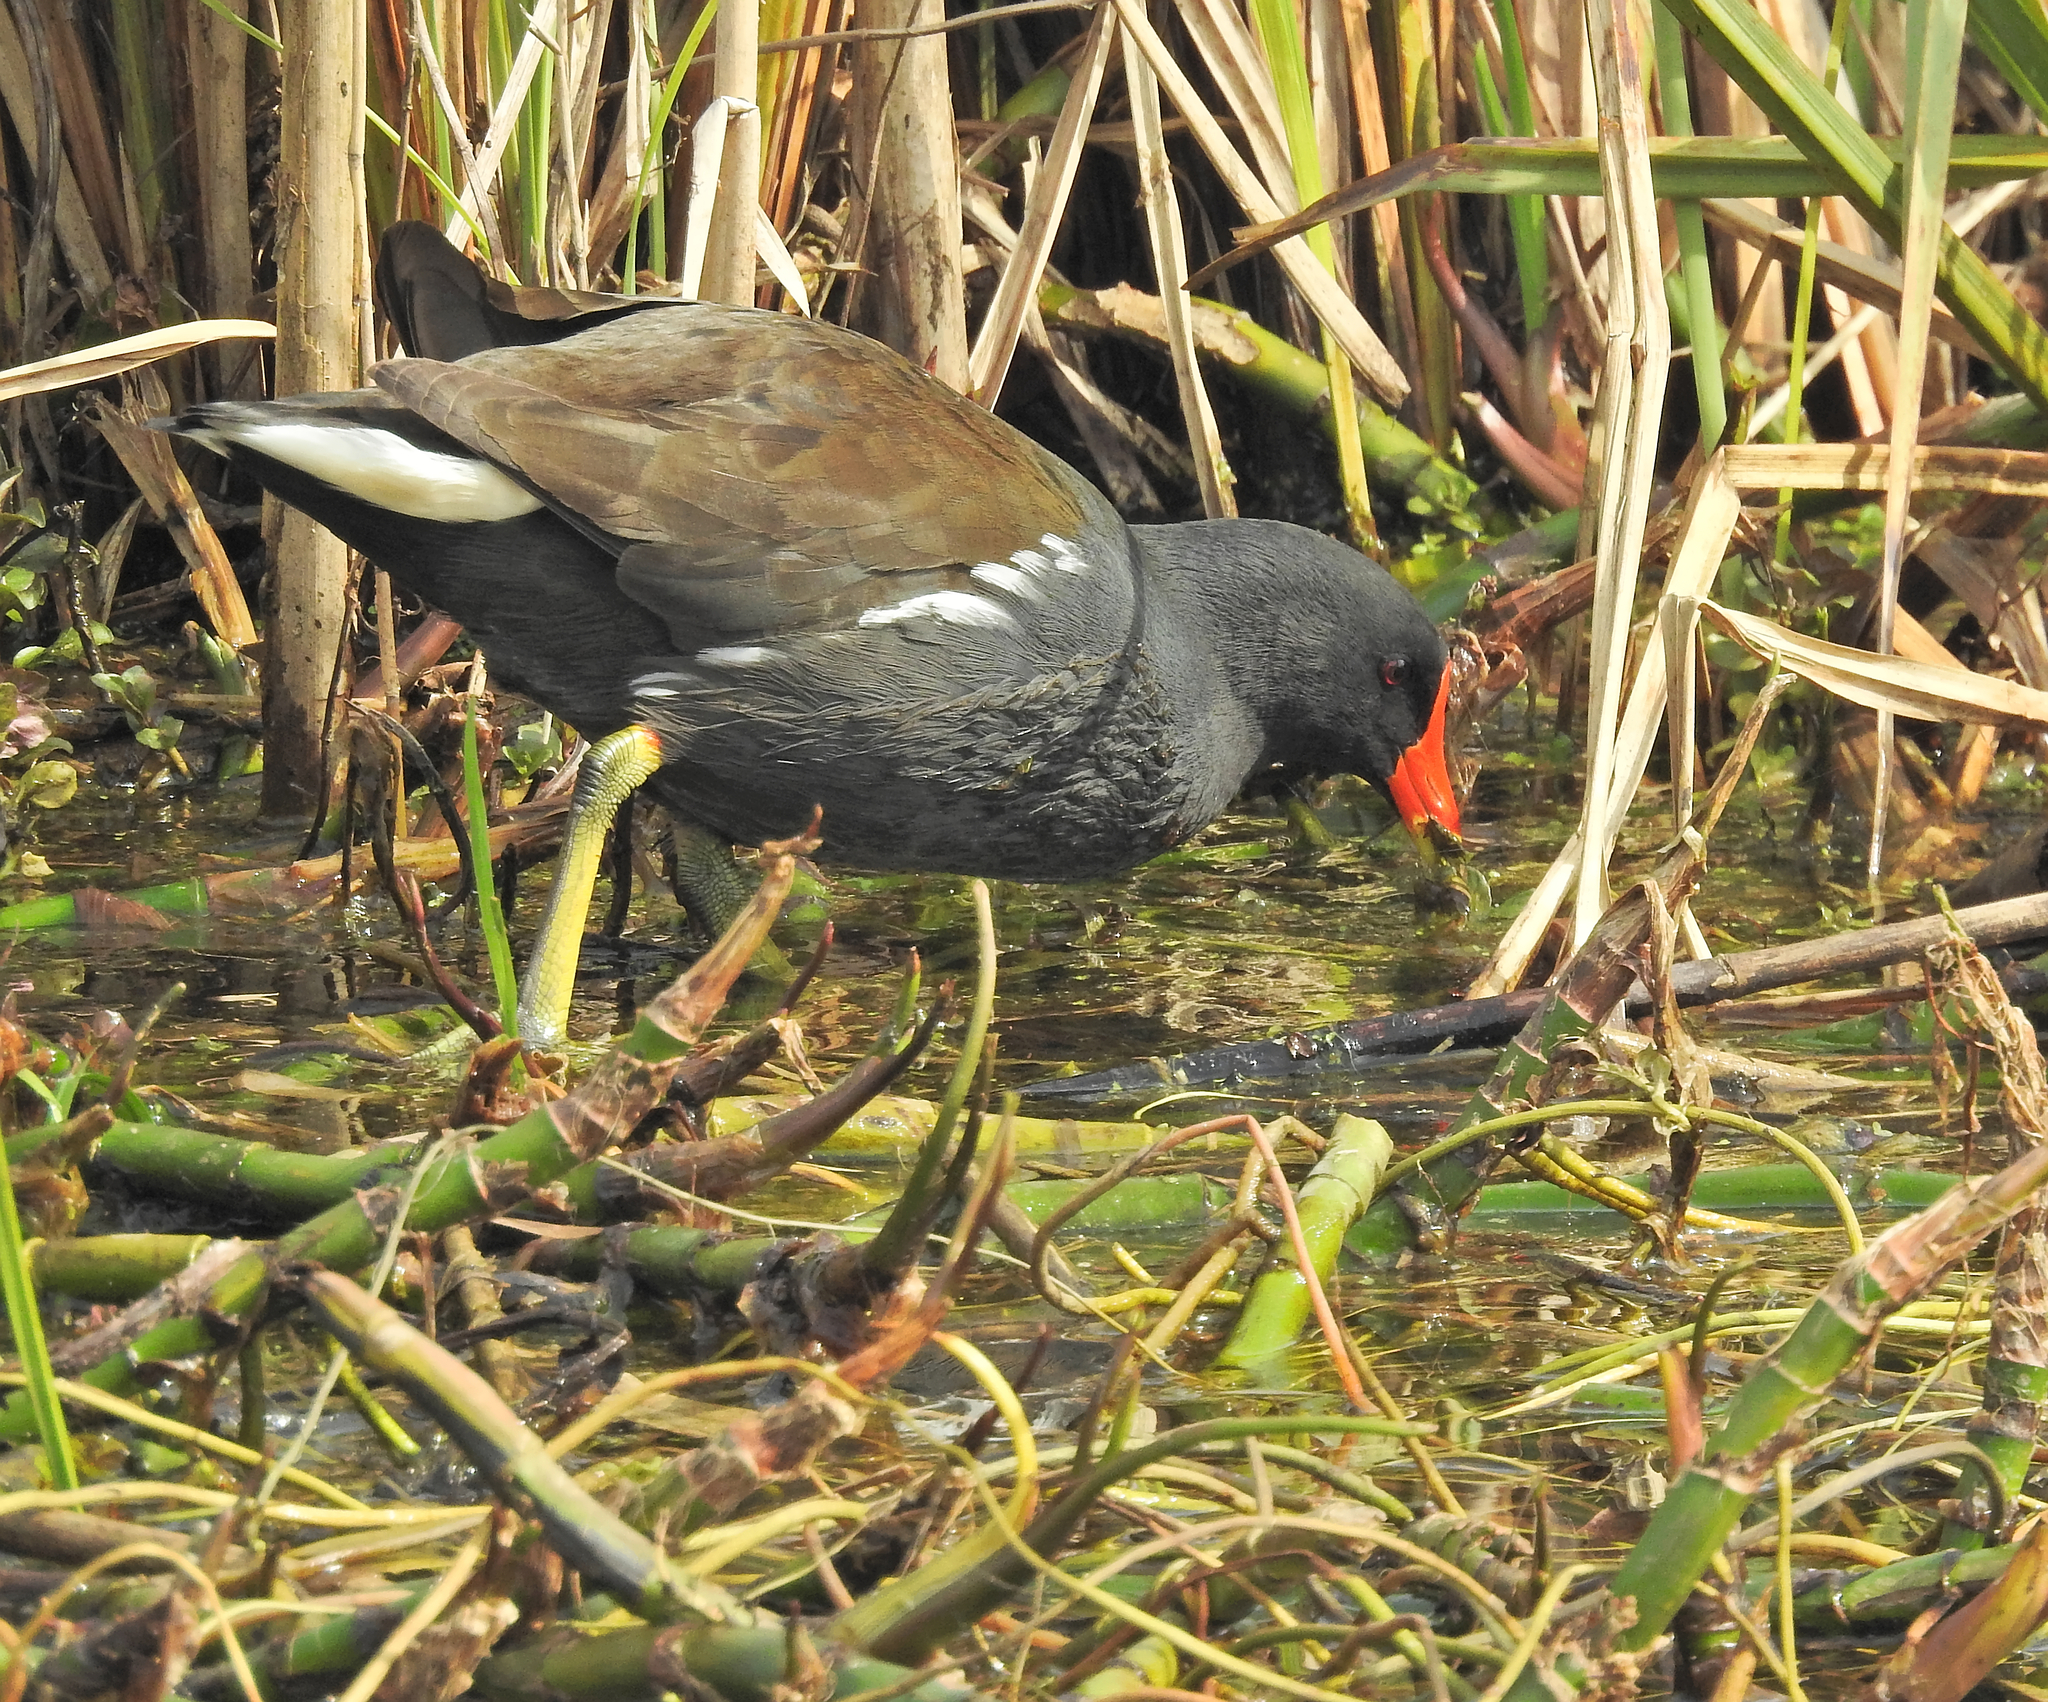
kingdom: Animalia
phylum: Chordata
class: Aves
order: Gruiformes
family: Rallidae
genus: Gallinula
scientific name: Gallinula chloropus
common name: Common moorhen
